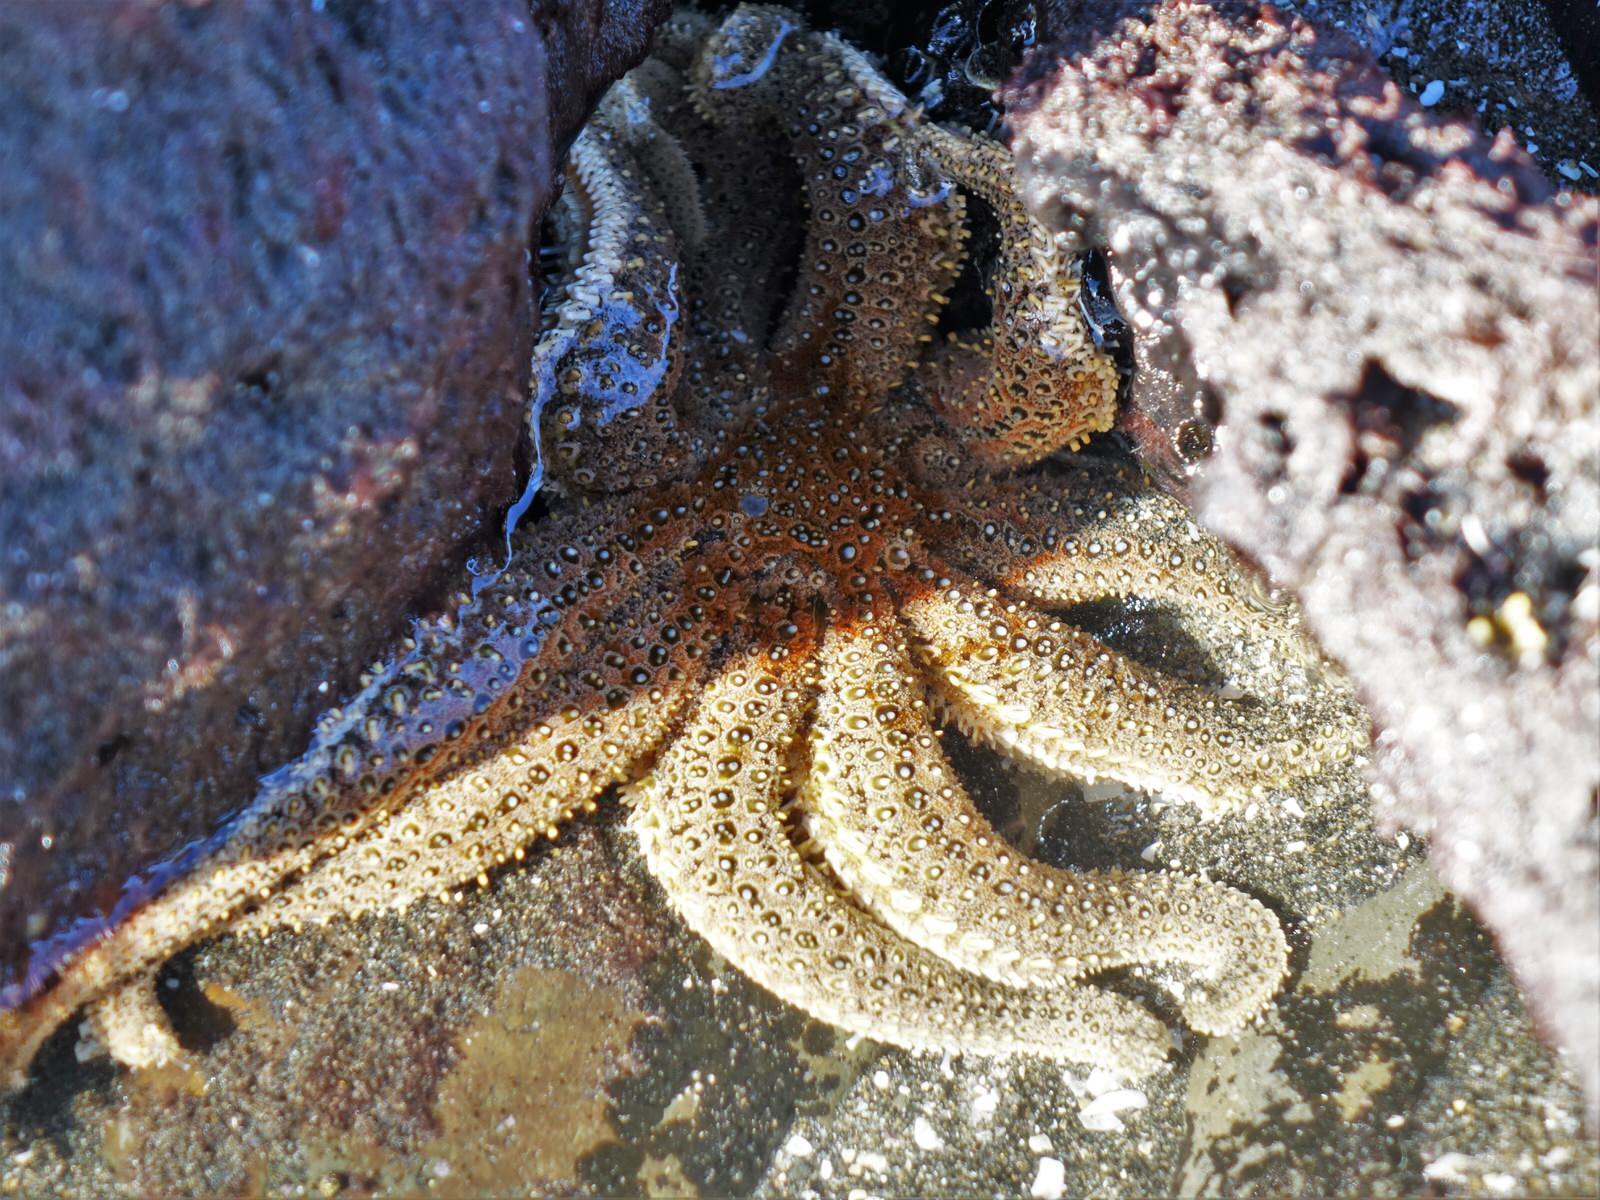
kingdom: Animalia
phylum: Echinodermata
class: Asteroidea
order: Forcipulatida
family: Asteriidae
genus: Coscinasterias
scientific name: Coscinasterias muricata
